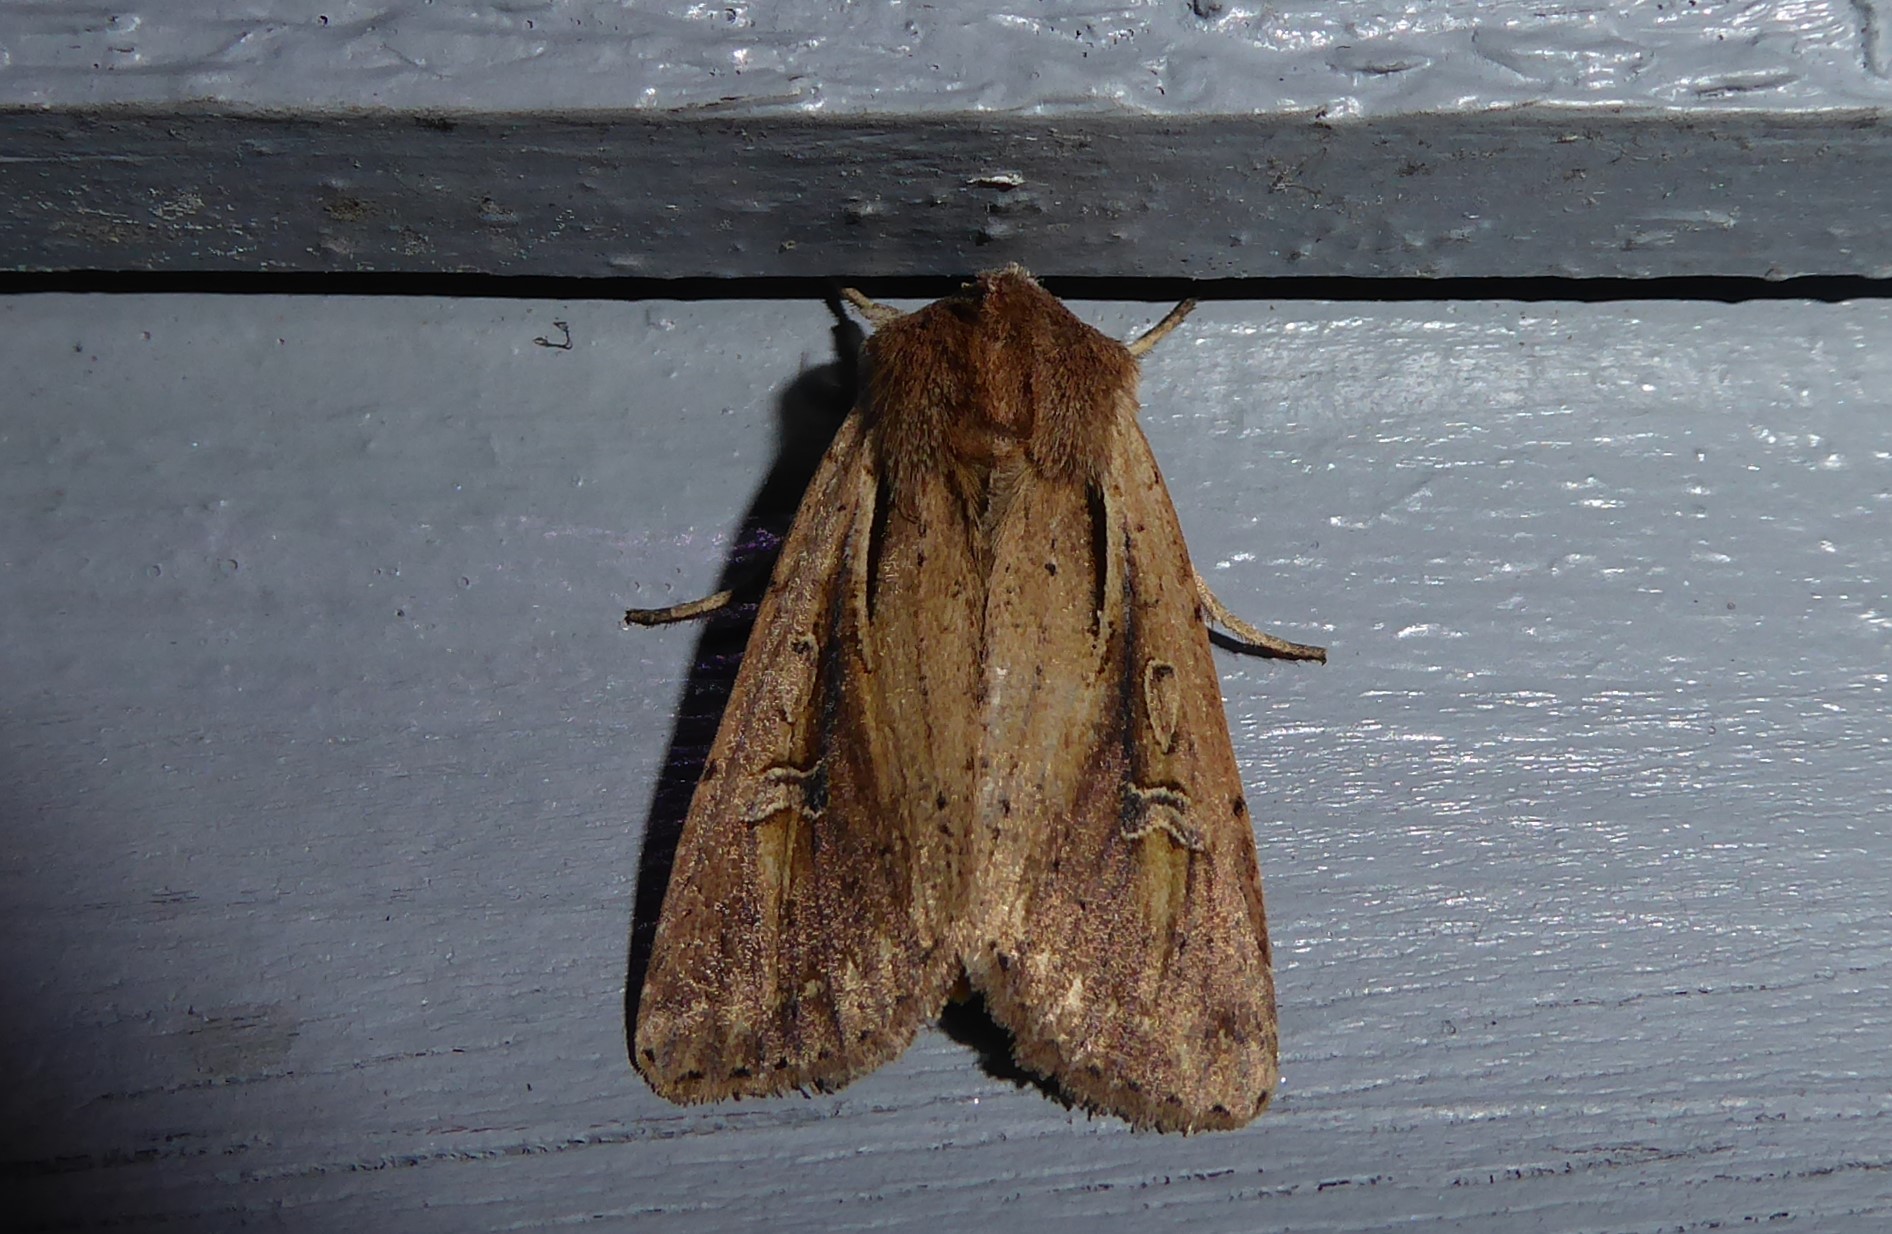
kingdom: Animalia
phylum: Arthropoda
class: Insecta
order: Lepidoptera
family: Noctuidae
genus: Ichneutica
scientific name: Ichneutica atristriga
